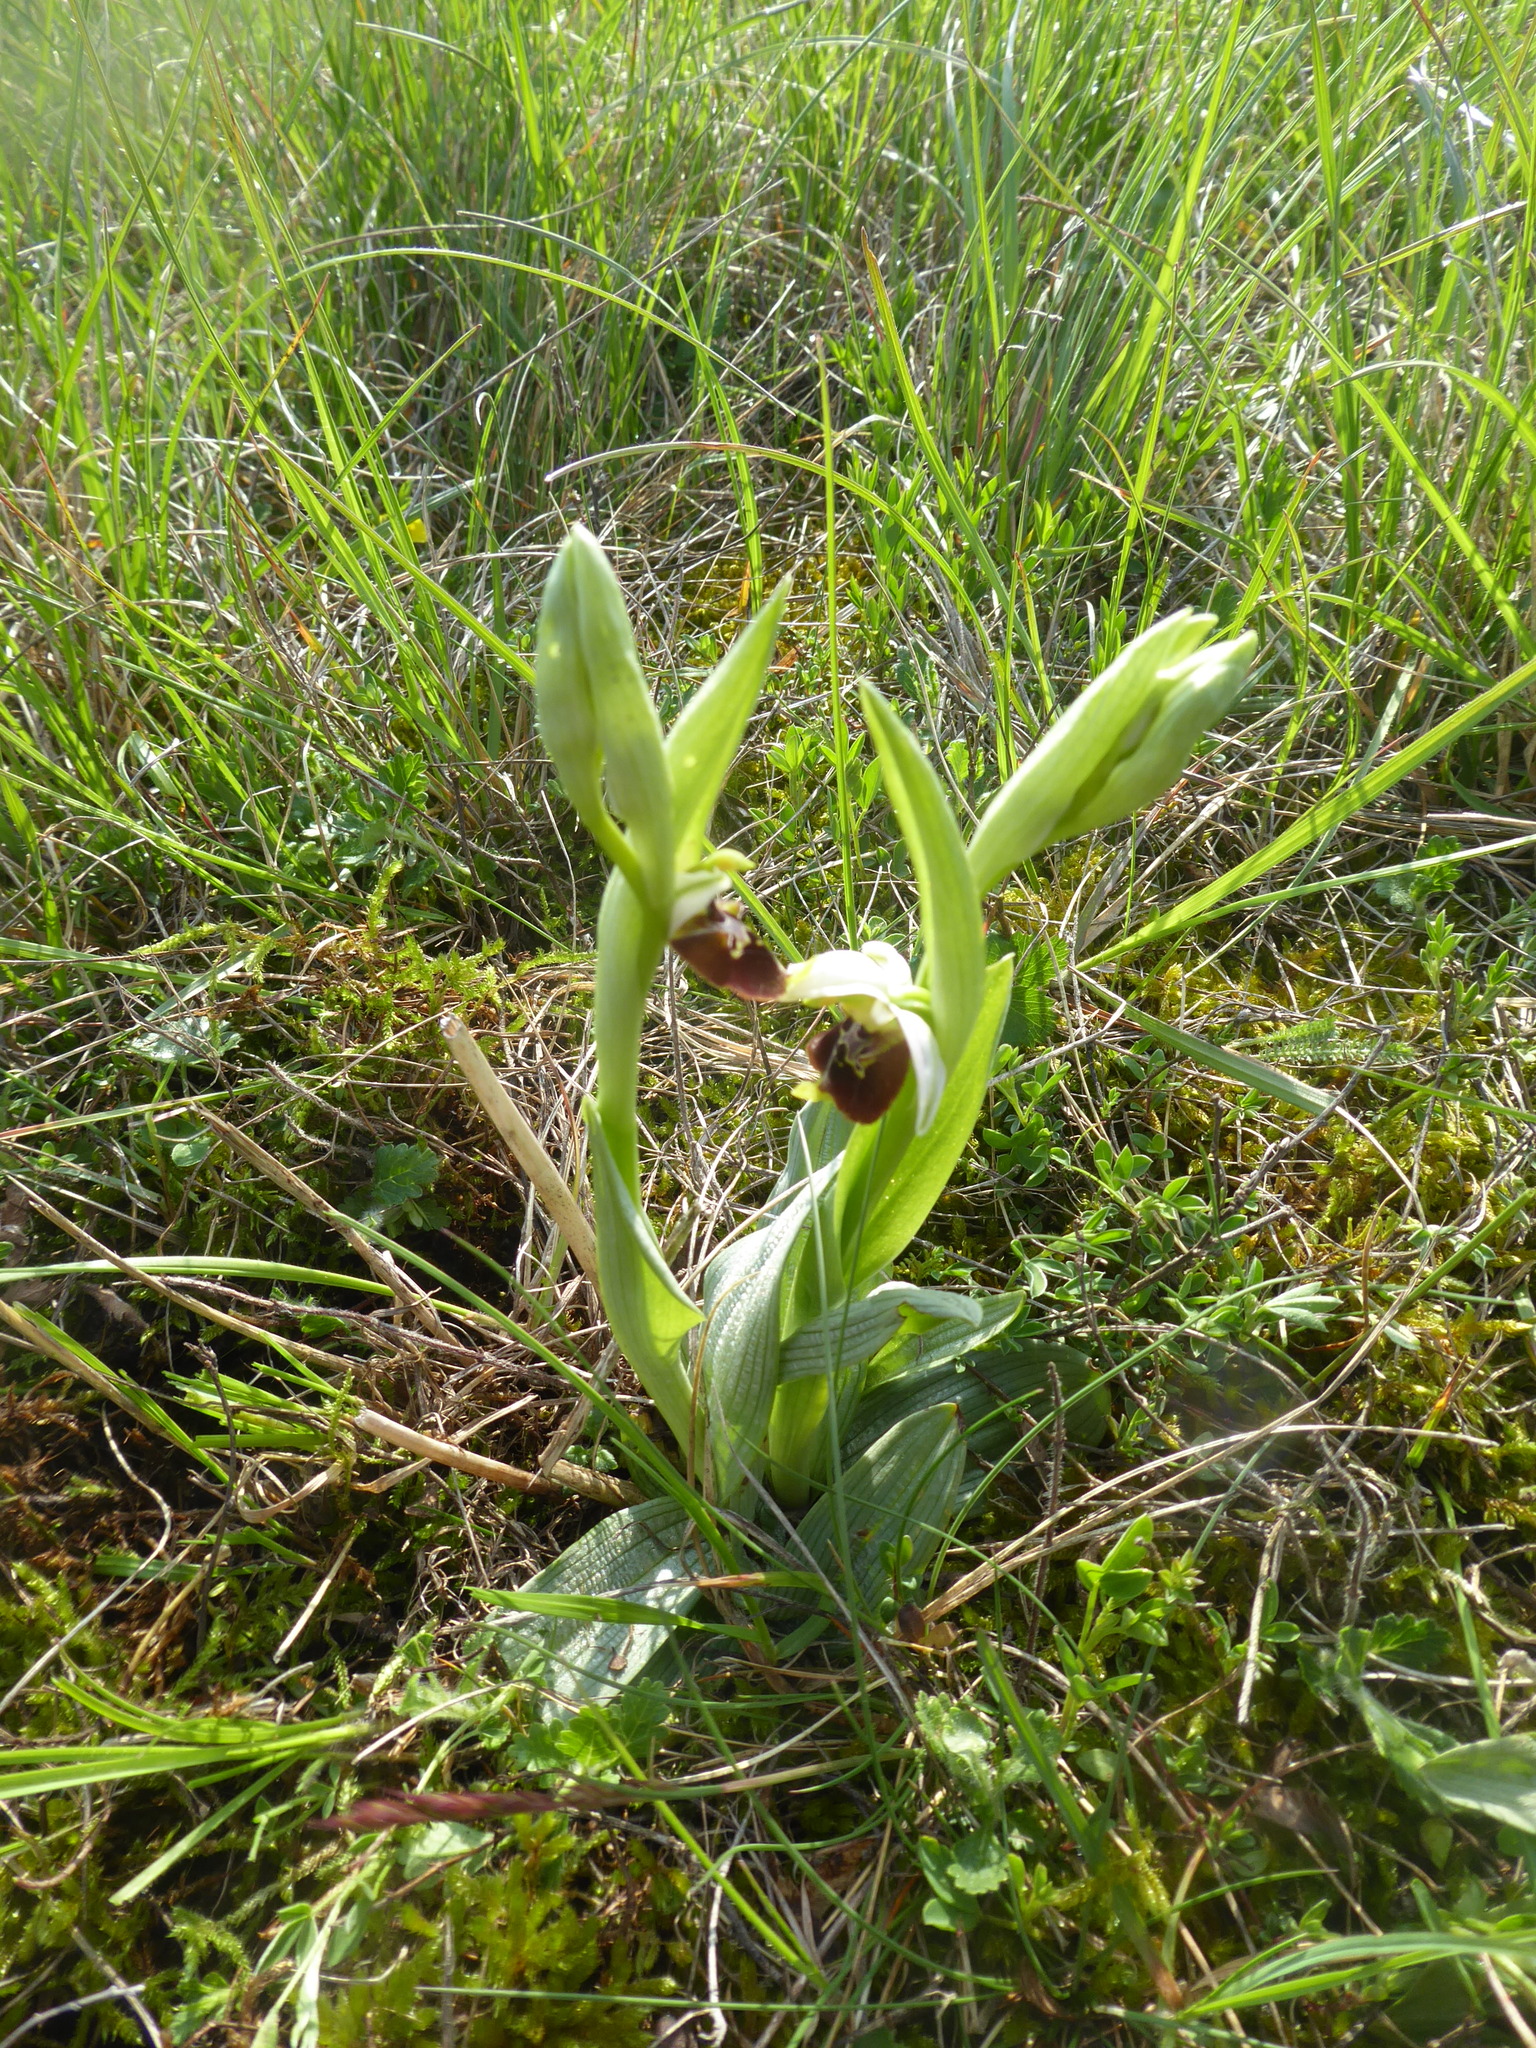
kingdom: Plantae
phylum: Tracheophyta
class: Liliopsida
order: Asparagales
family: Orchidaceae
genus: Ophrys
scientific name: Ophrys holosericea
